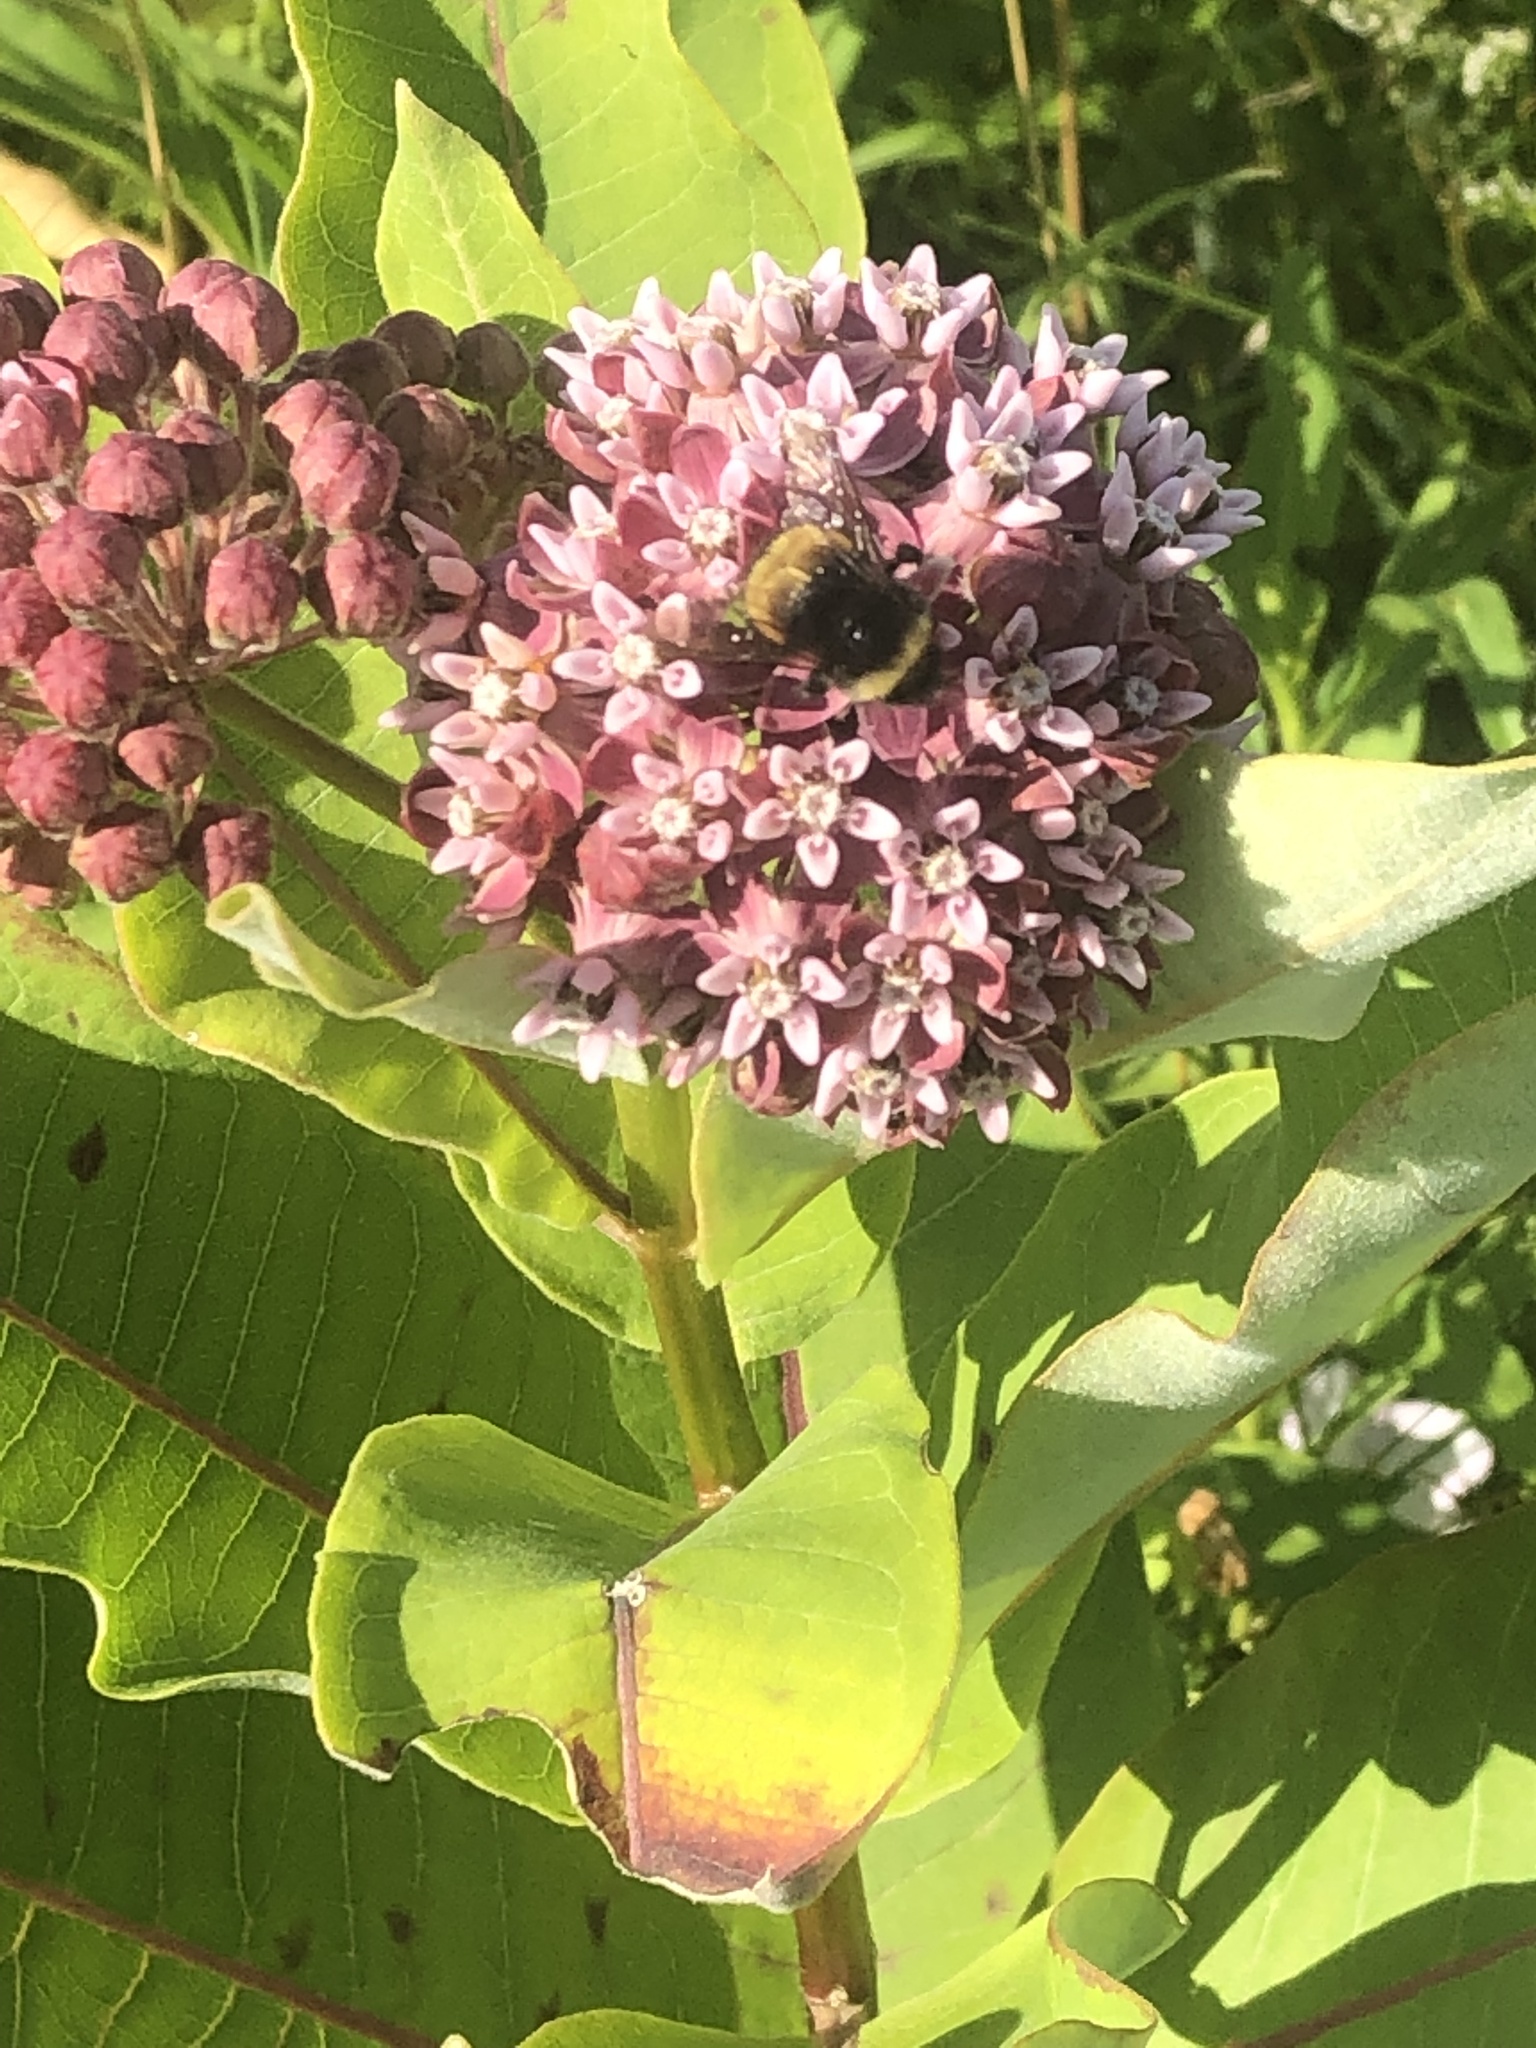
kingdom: Animalia
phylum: Arthropoda
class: Insecta
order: Hymenoptera
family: Apidae
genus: Bombus
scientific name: Bombus terricola
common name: Yellow-banded bumble bee
